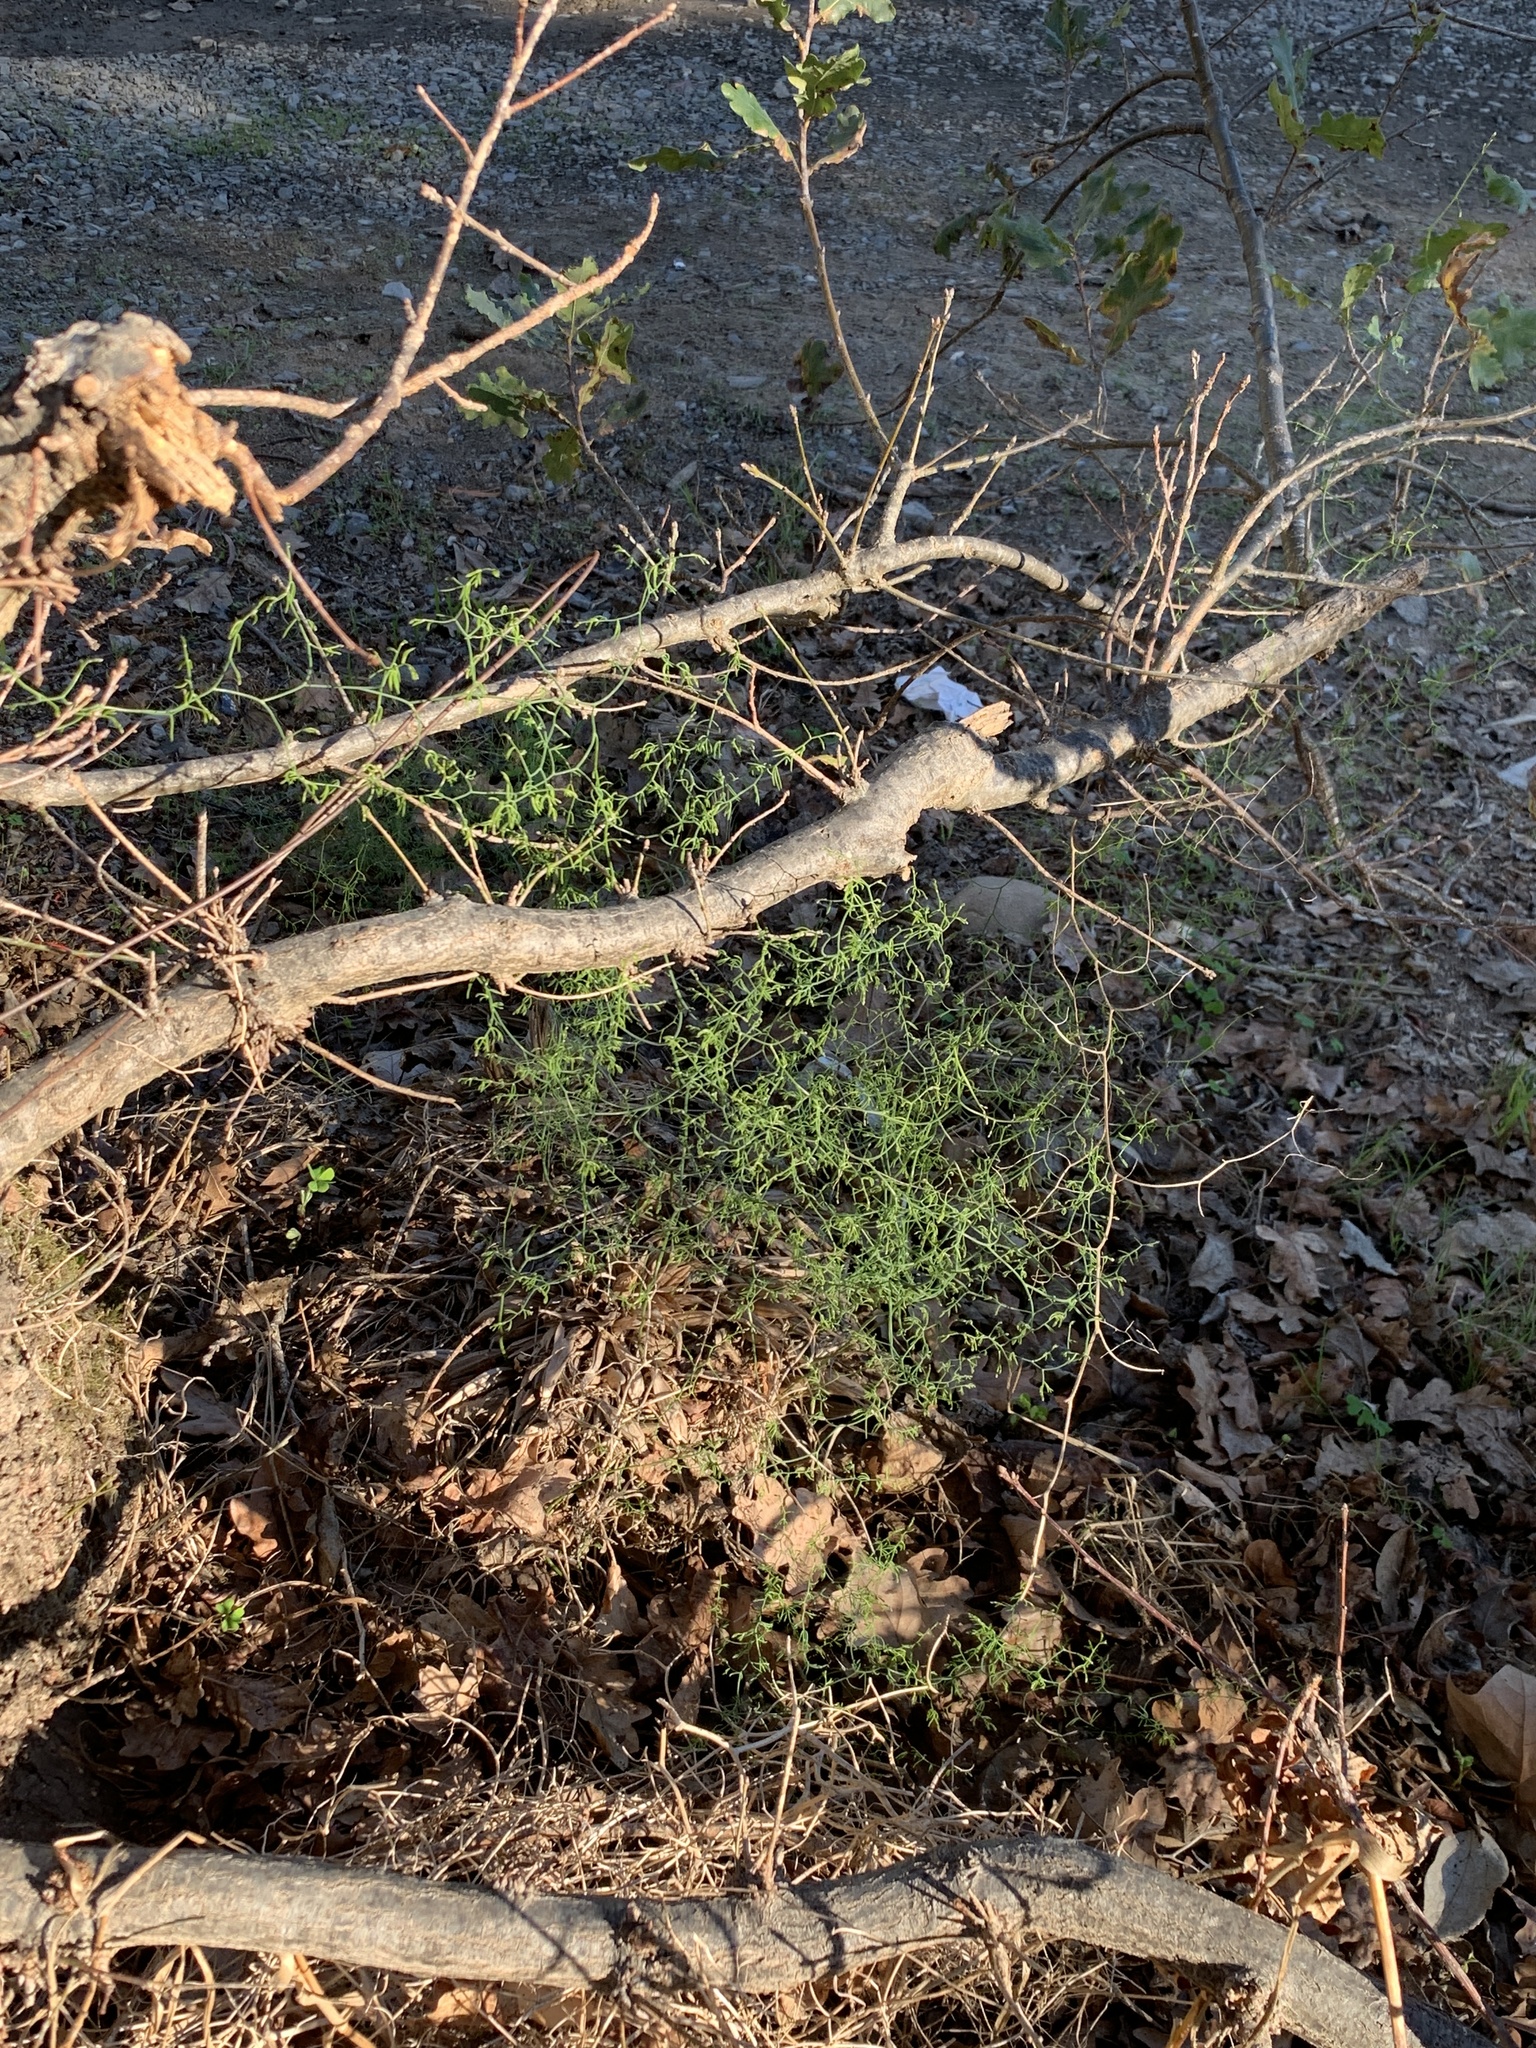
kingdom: Plantae
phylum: Tracheophyta
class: Liliopsida
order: Asparagales
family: Asparagaceae
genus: Asparagus
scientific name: Asparagus declinatus
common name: Bridal-creeper
